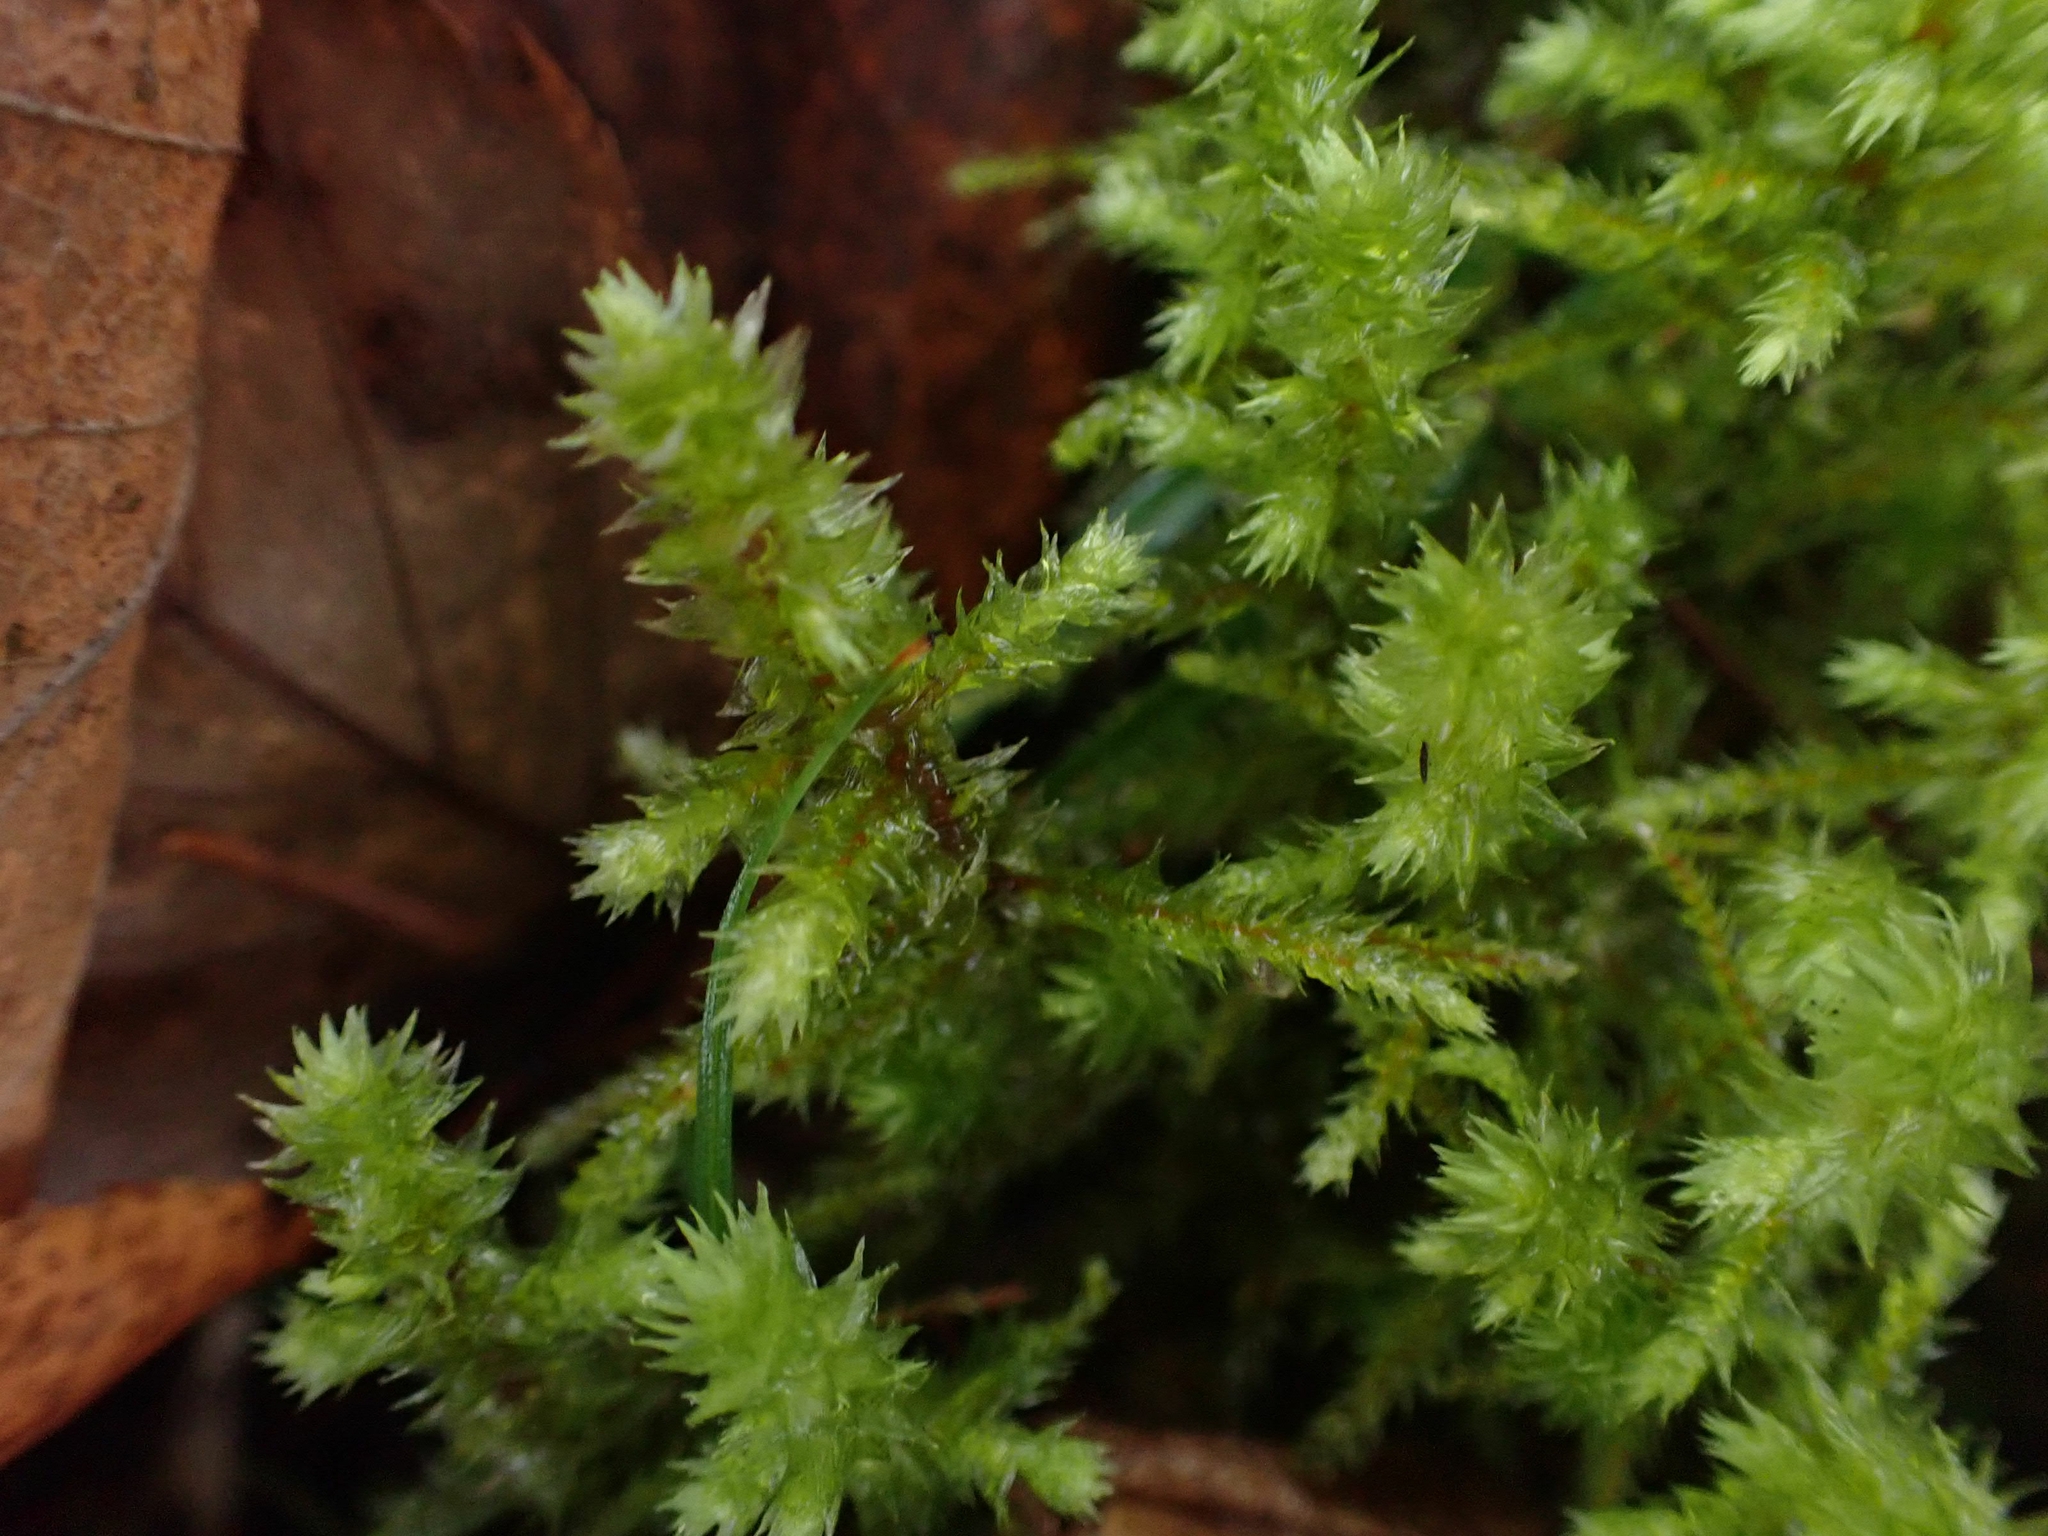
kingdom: Plantae
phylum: Bryophyta
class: Bryopsida
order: Hypnales
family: Hylocomiaceae
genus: Hylocomiadelphus
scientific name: Hylocomiadelphus triquetrus
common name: Rough goose neck moss
